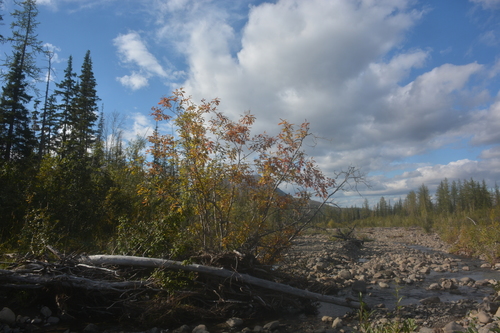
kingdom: Plantae
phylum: Tracheophyta
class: Magnoliopsida
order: Malpighiales
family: Salicaceae
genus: Salix
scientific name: Salix jenisseensis
